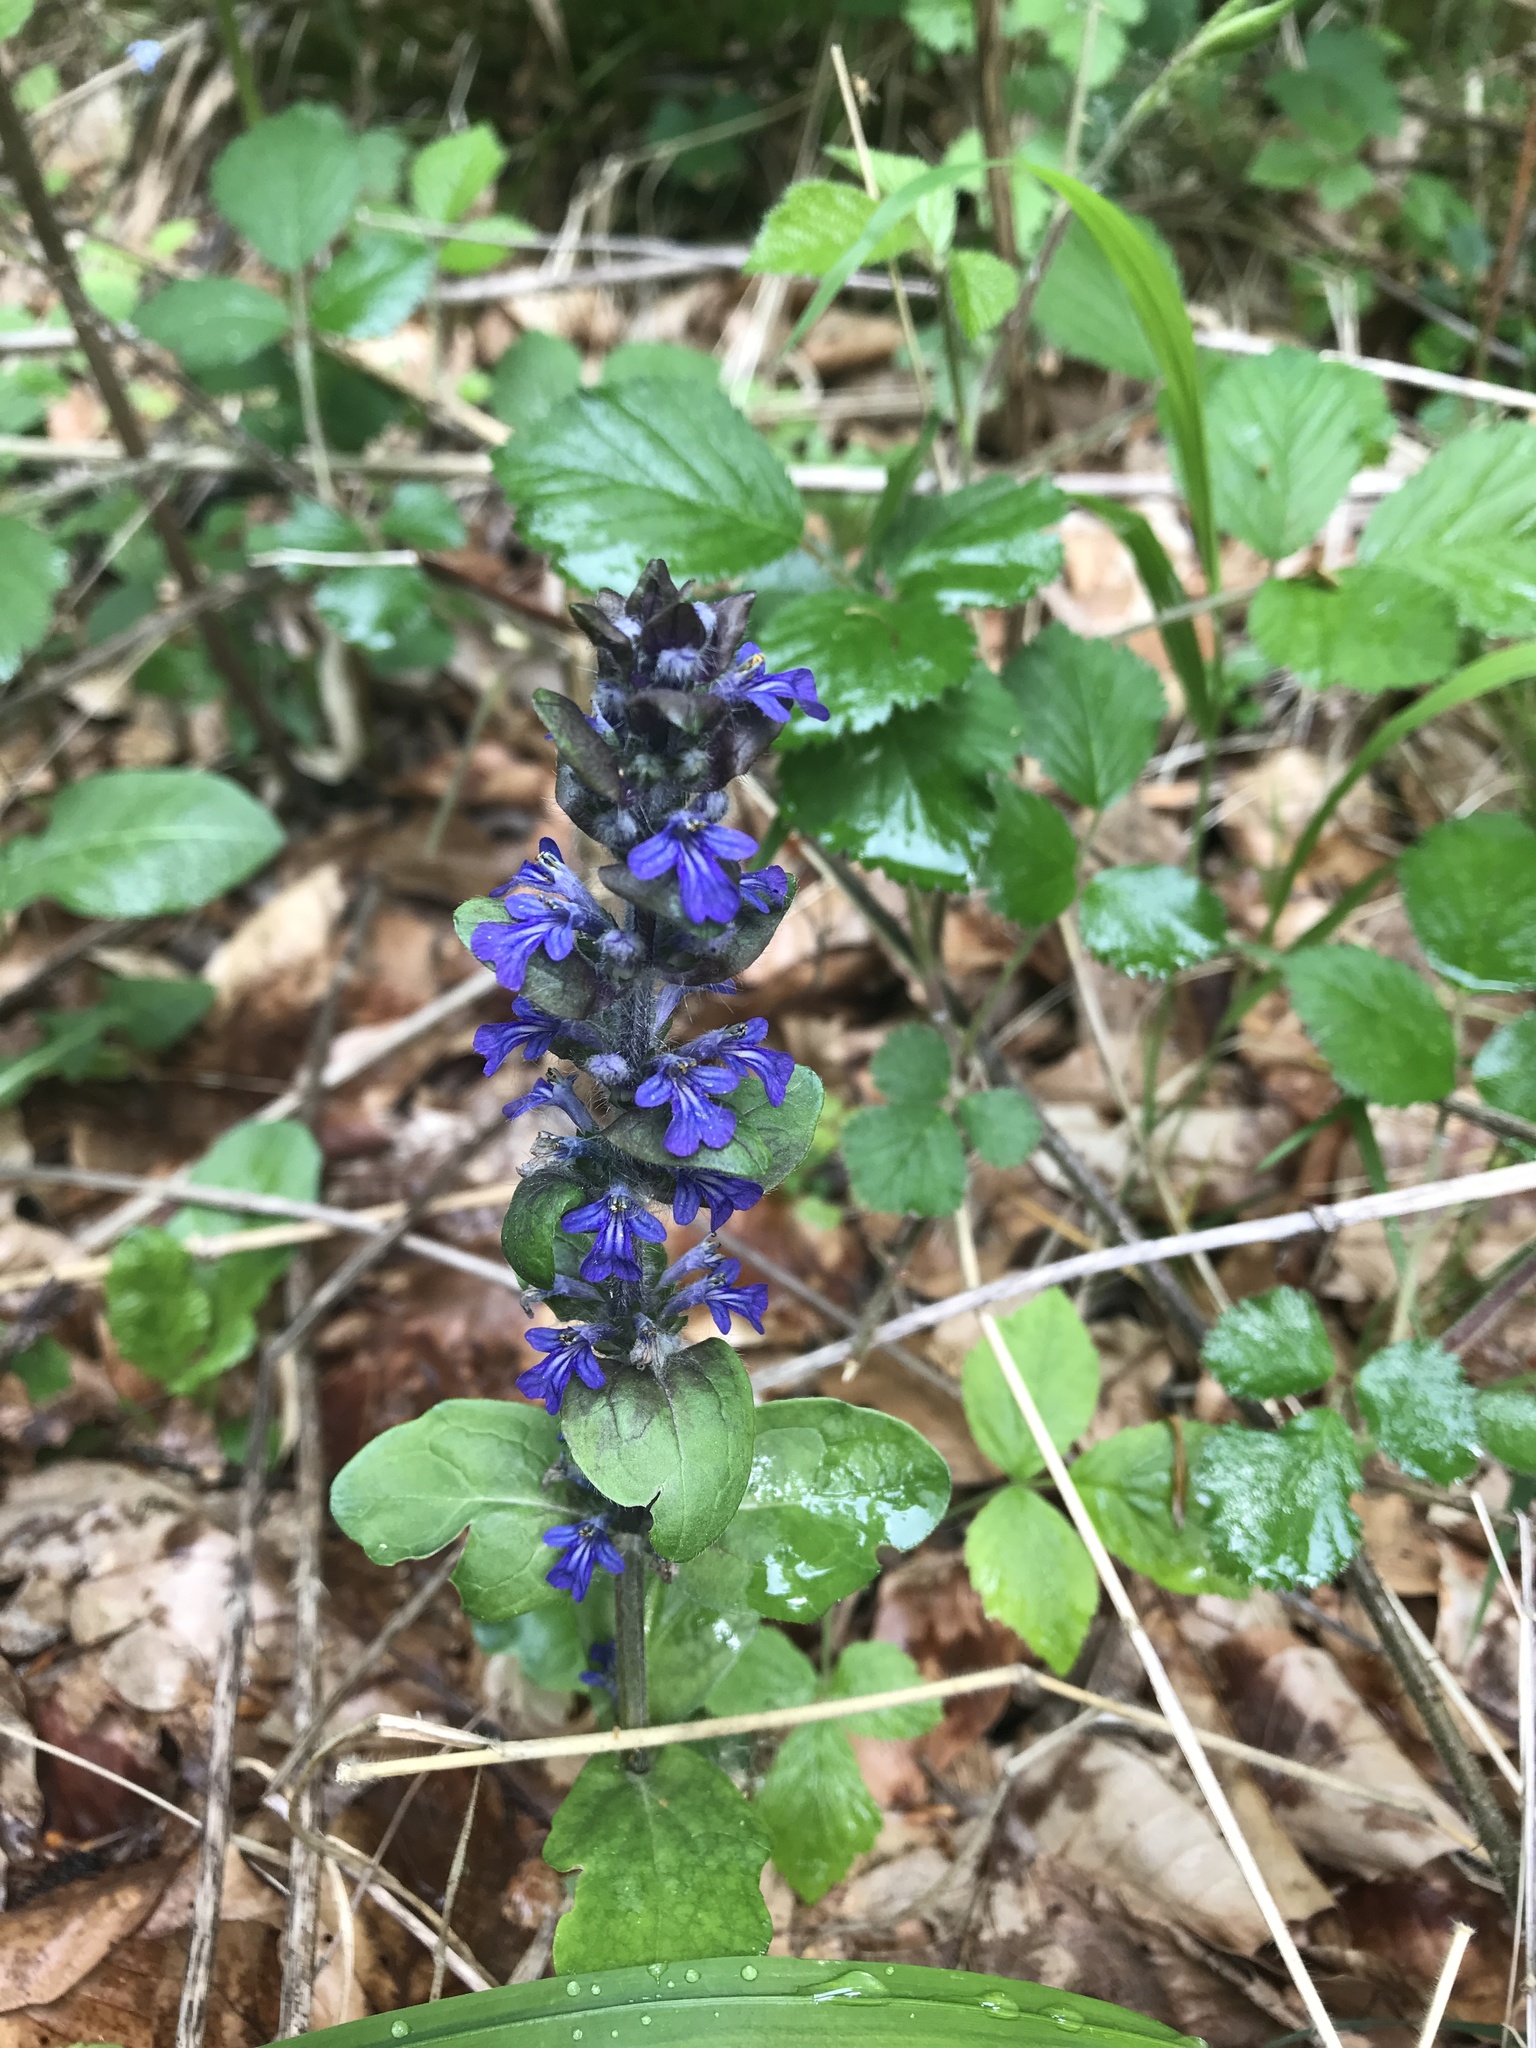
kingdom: Plantae
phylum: Tracheophyta
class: Magnoliopsida
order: Lamiales
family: Lamiaceae
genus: Ajuga
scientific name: Ajuga reptans
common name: Bugle
